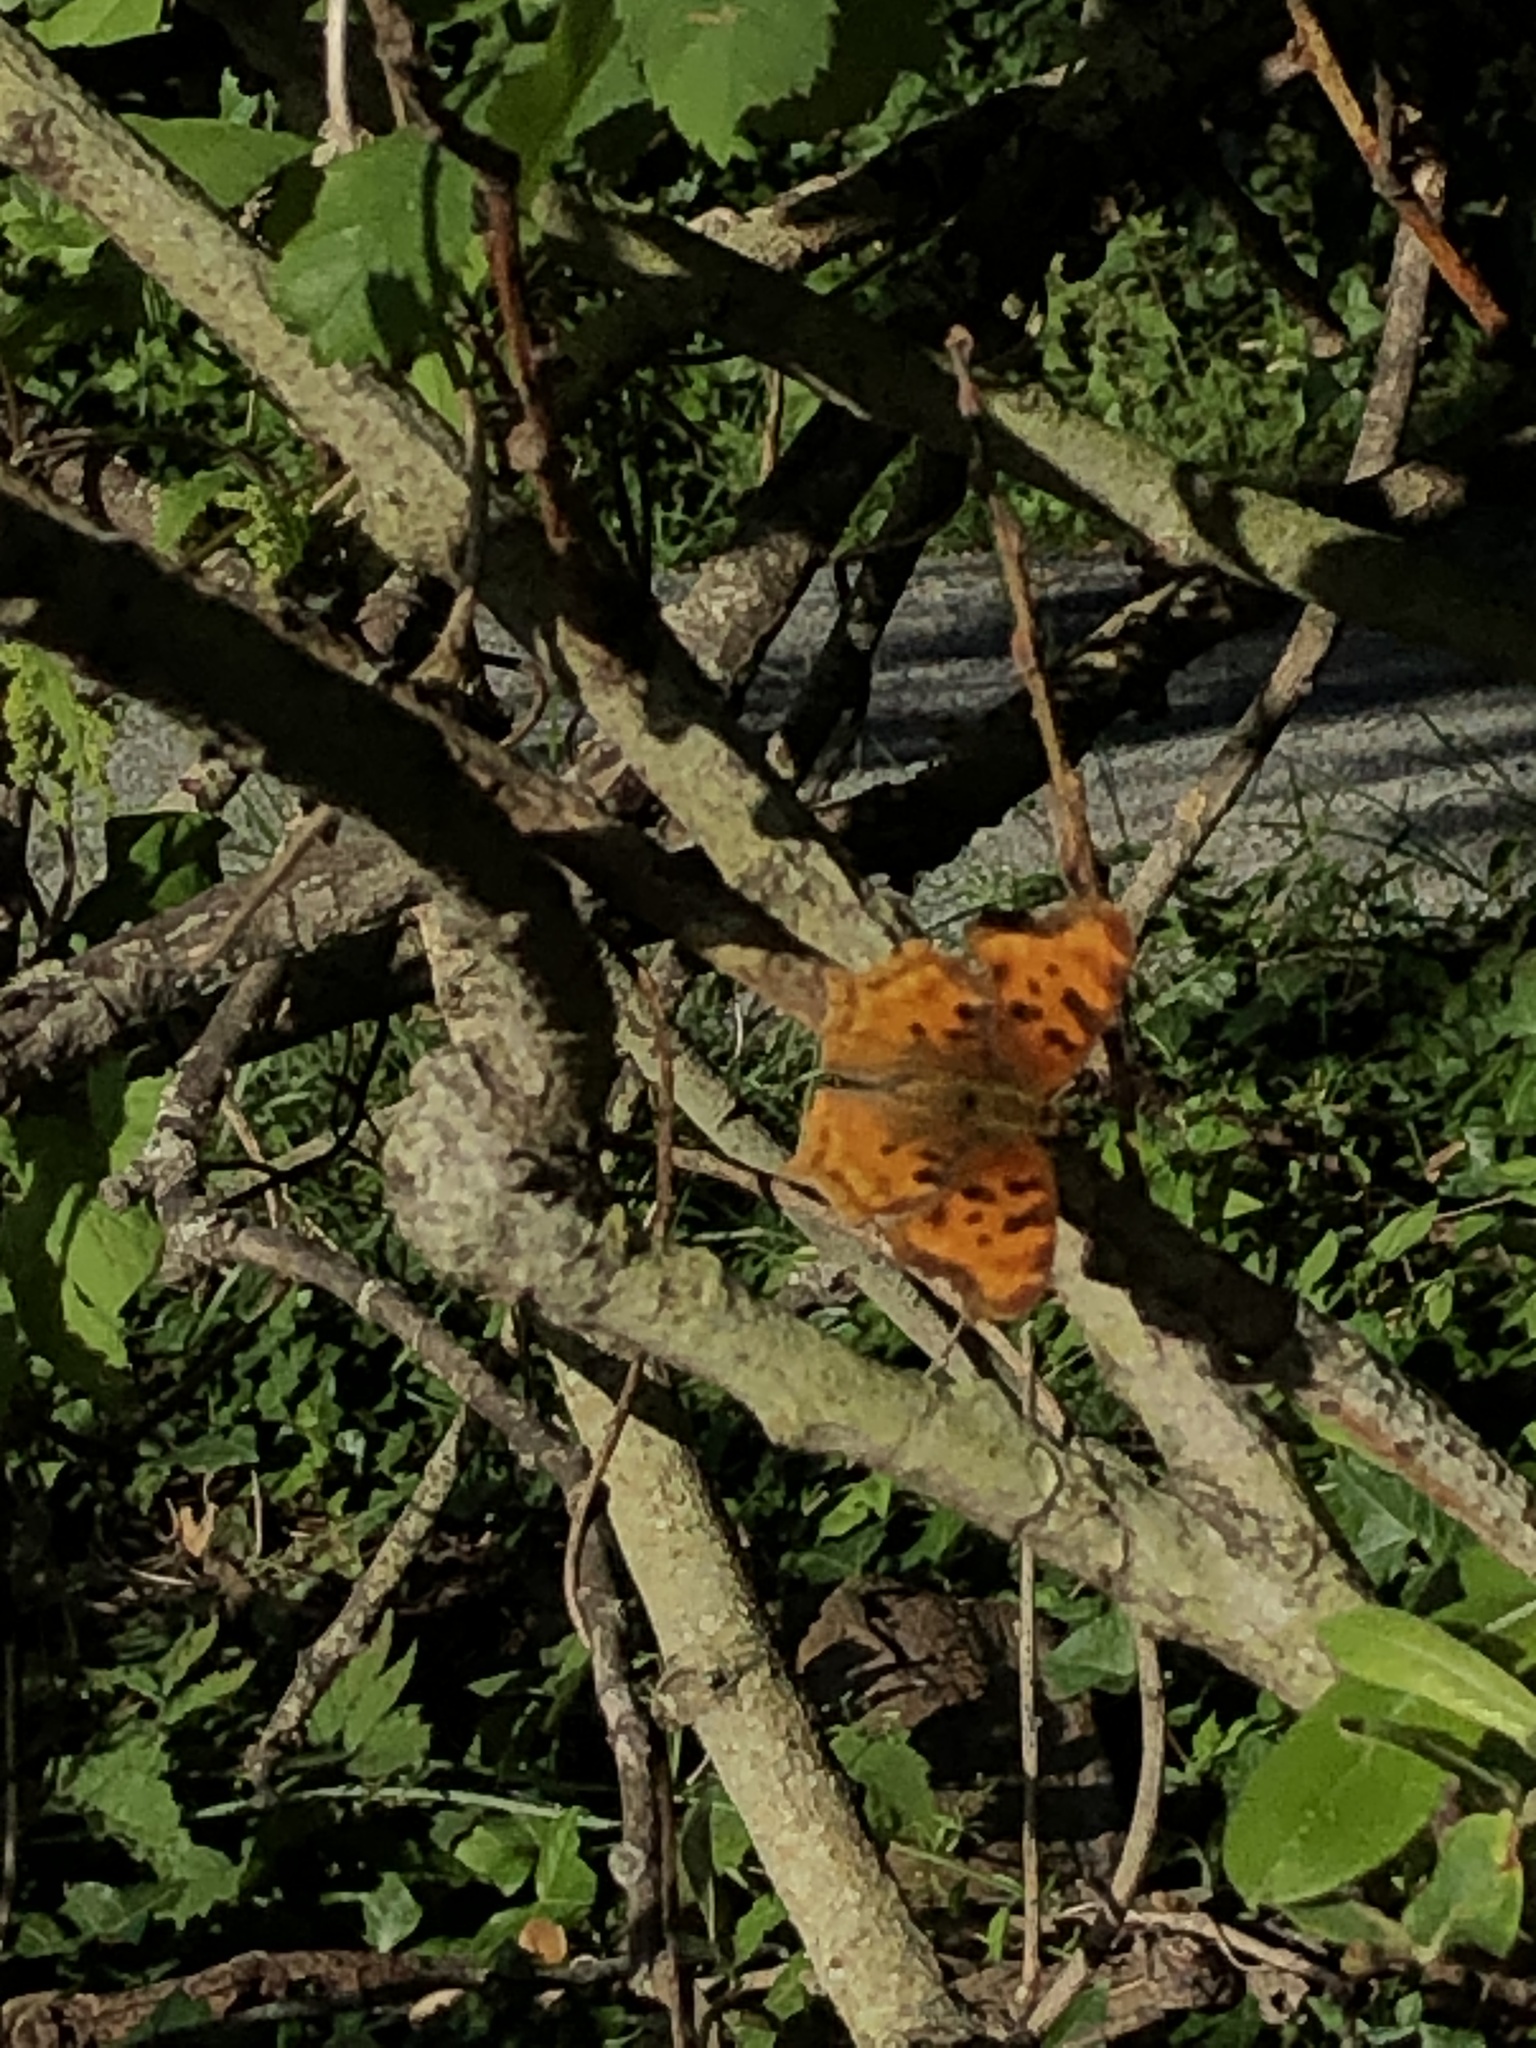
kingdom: Animalia
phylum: Arthropoda
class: Insecta
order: Lepidoptera
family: Nymphalidae
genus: Polygonia
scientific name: Polygonia satyrus
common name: Satyr angle wing
